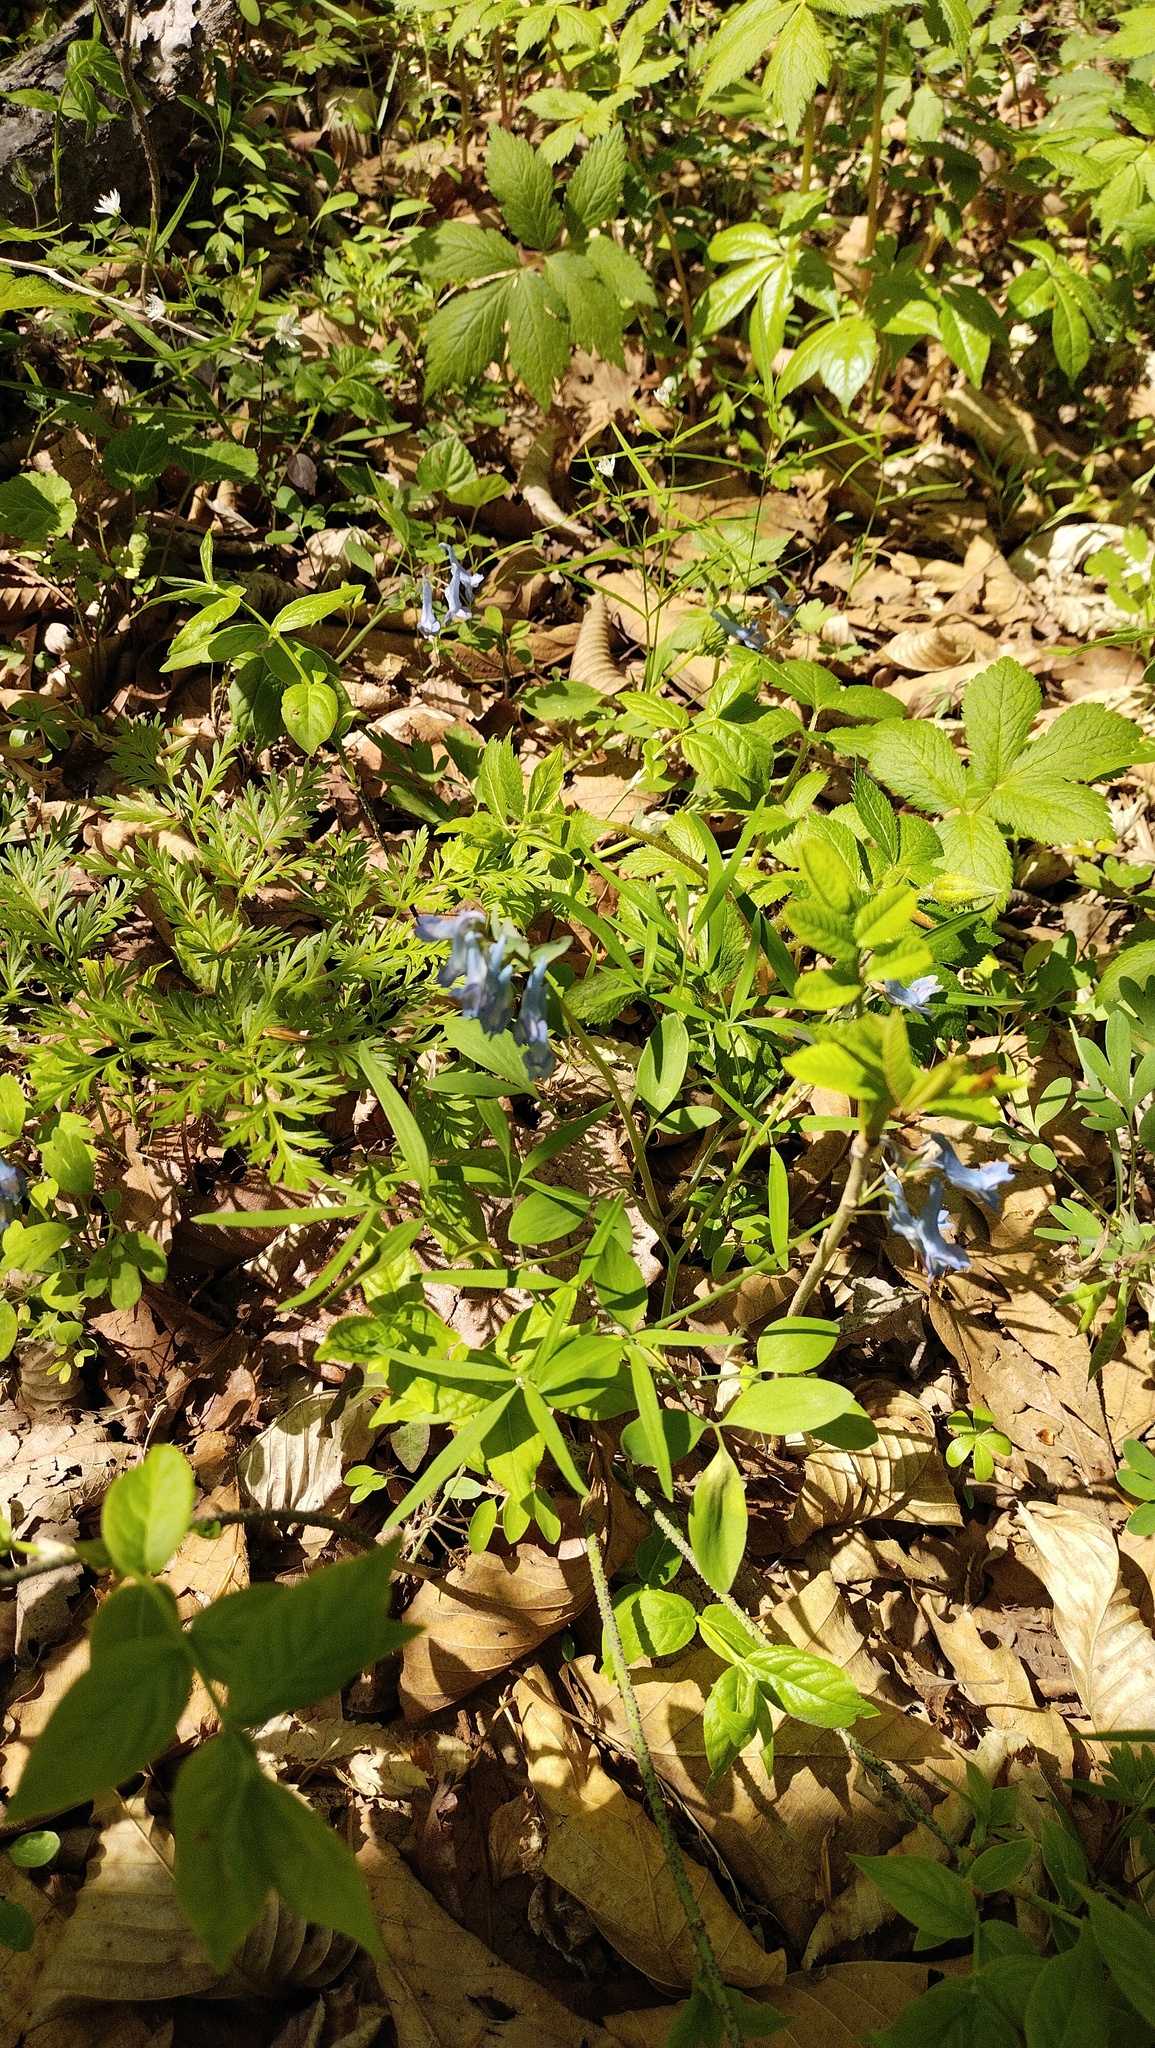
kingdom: Plantae
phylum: Tracheophyta
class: Magnoliopsida
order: Ranunculales
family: Papaveraceae
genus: Corydalis
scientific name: Corydalis ambigua
